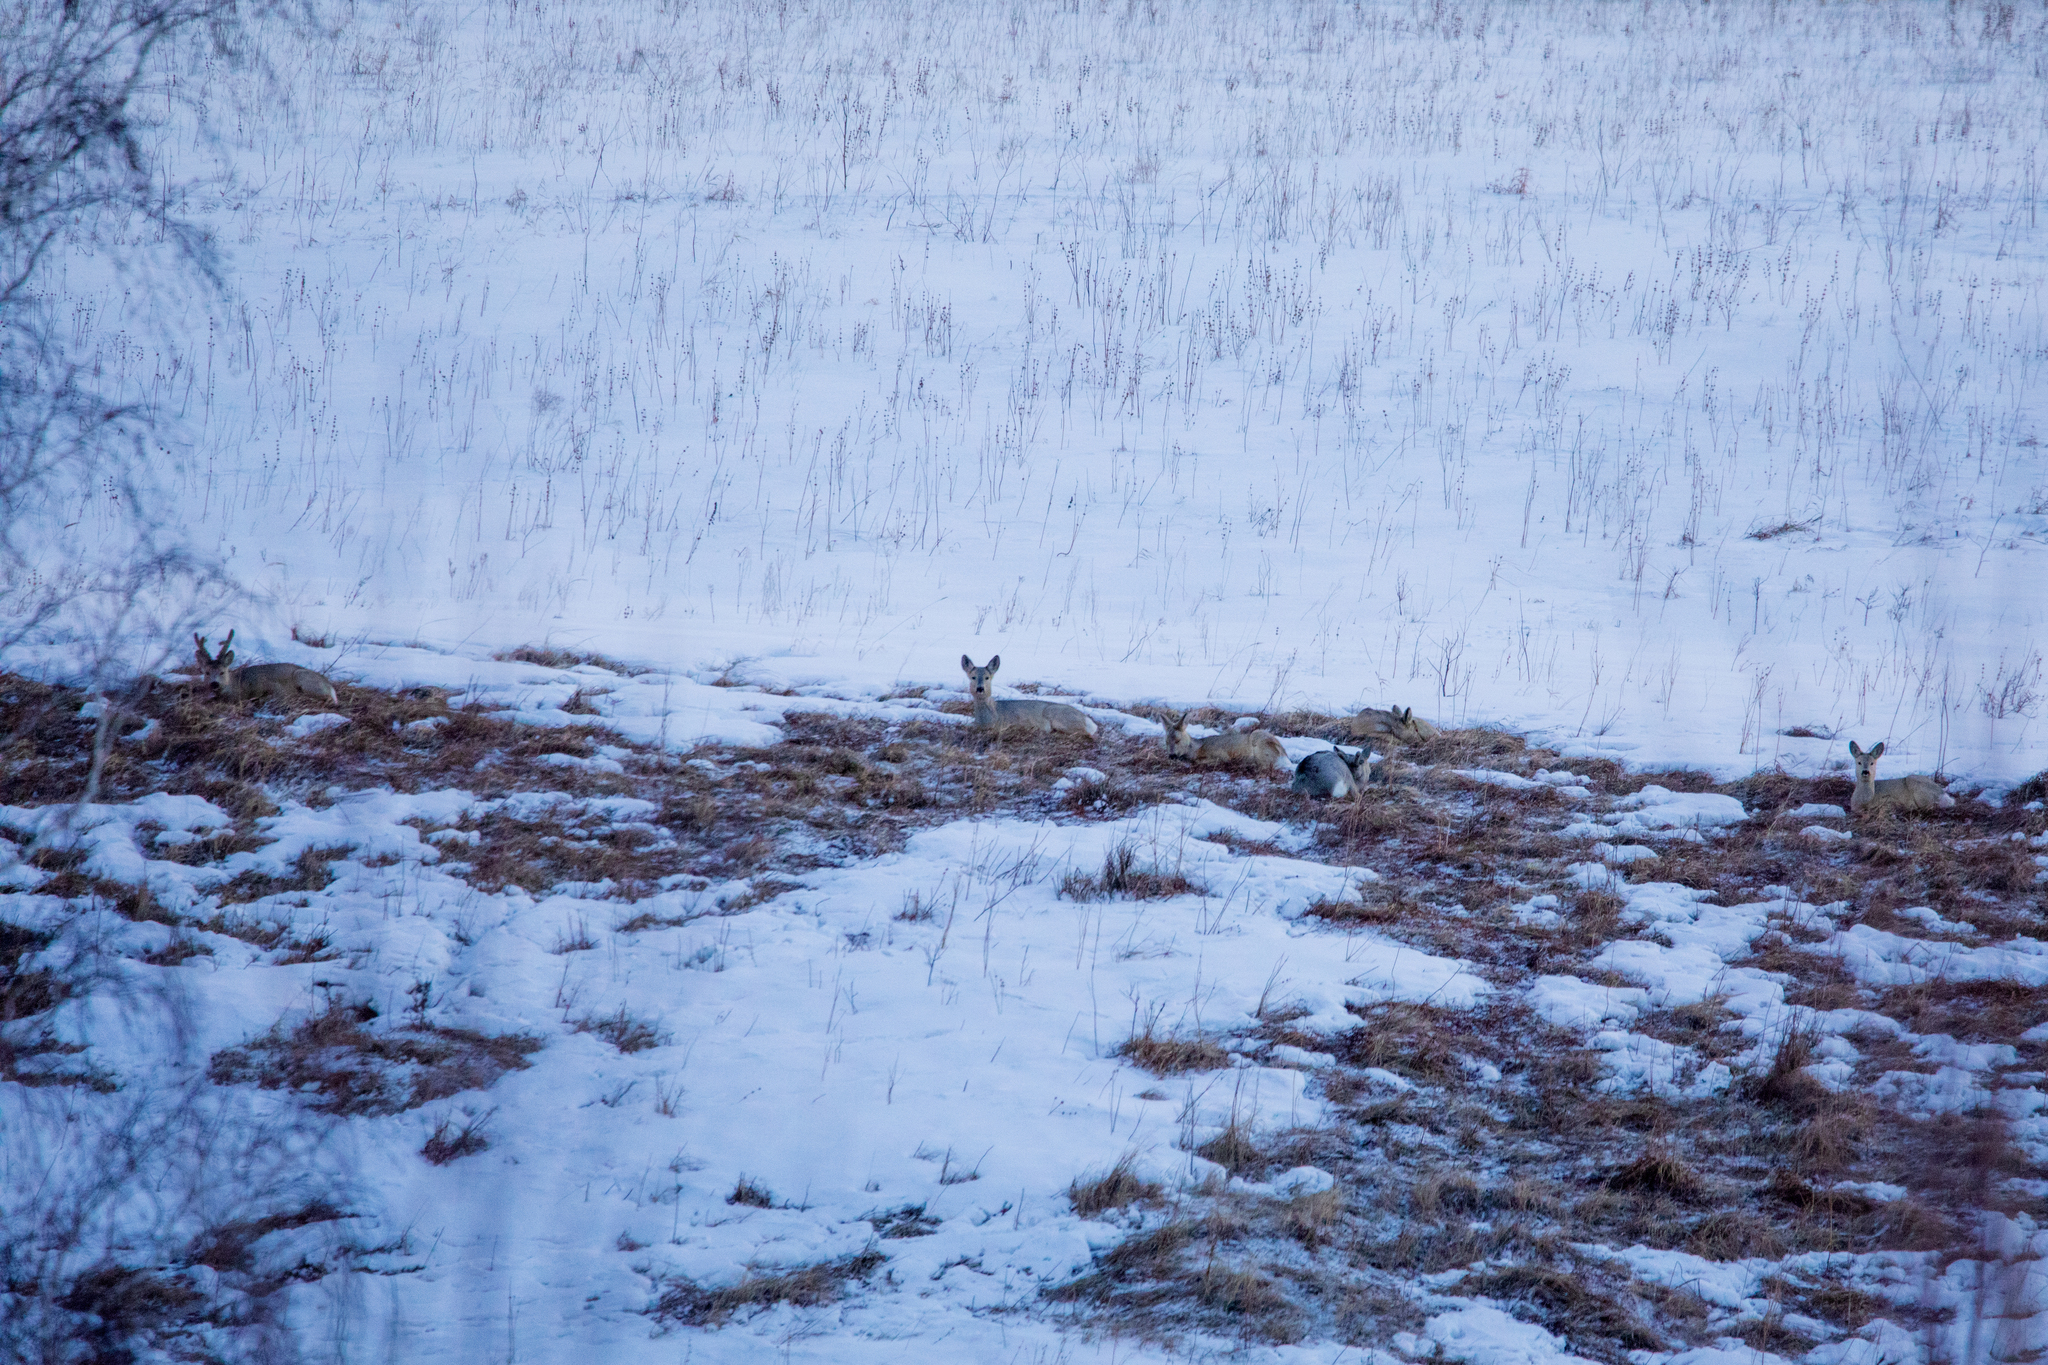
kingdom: Animalia
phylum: Chordata
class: Mammalia
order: Artiodactyla
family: Cervidae
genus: Capreolus
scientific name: Capreolus pygargus
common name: Siberian roe
